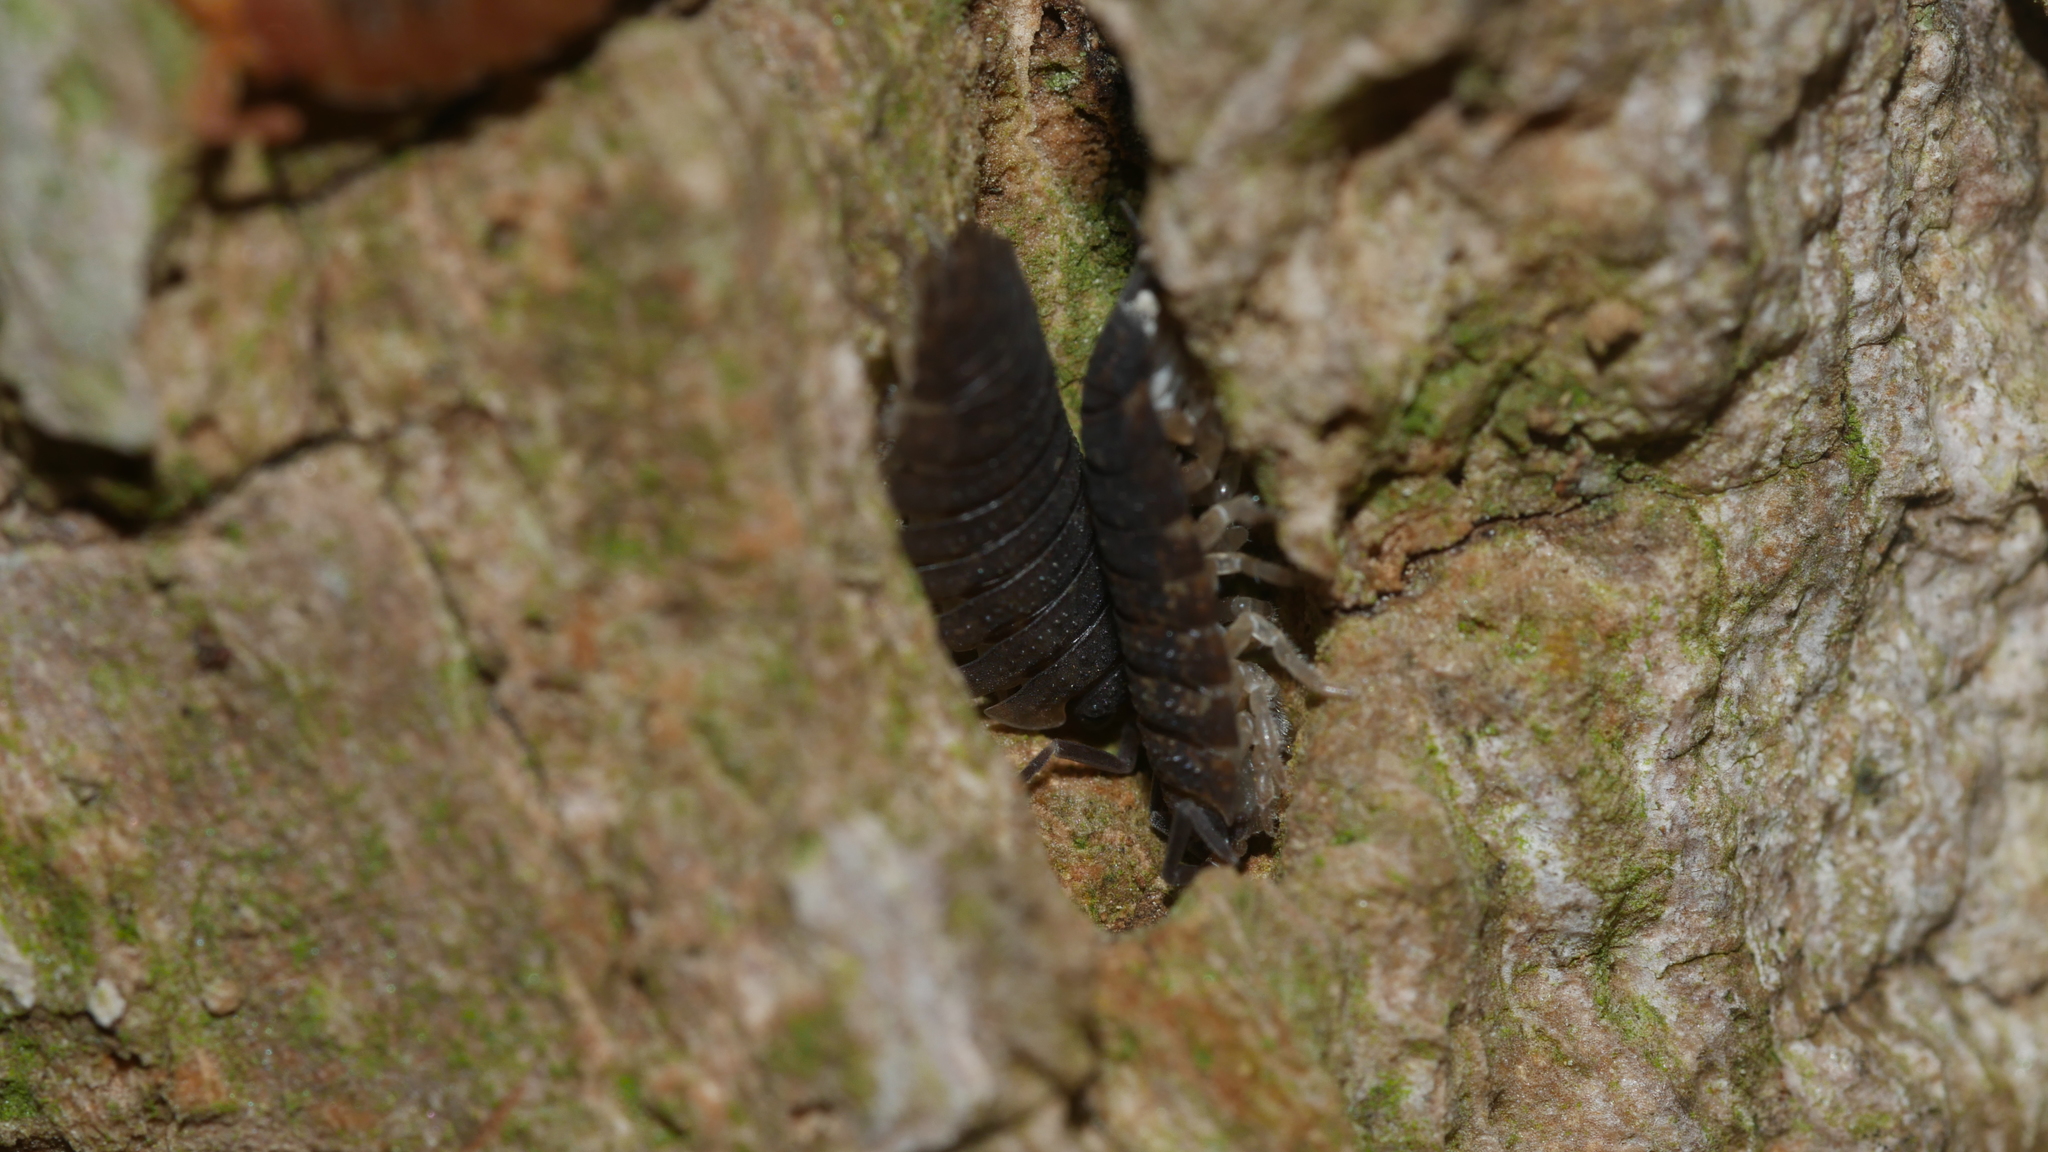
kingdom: Animalia
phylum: Arthropoda
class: Malacostraca
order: Isopoda
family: Porcellionidae
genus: Porcellio
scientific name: Porcellio scaber
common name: Common rough woodlouse
